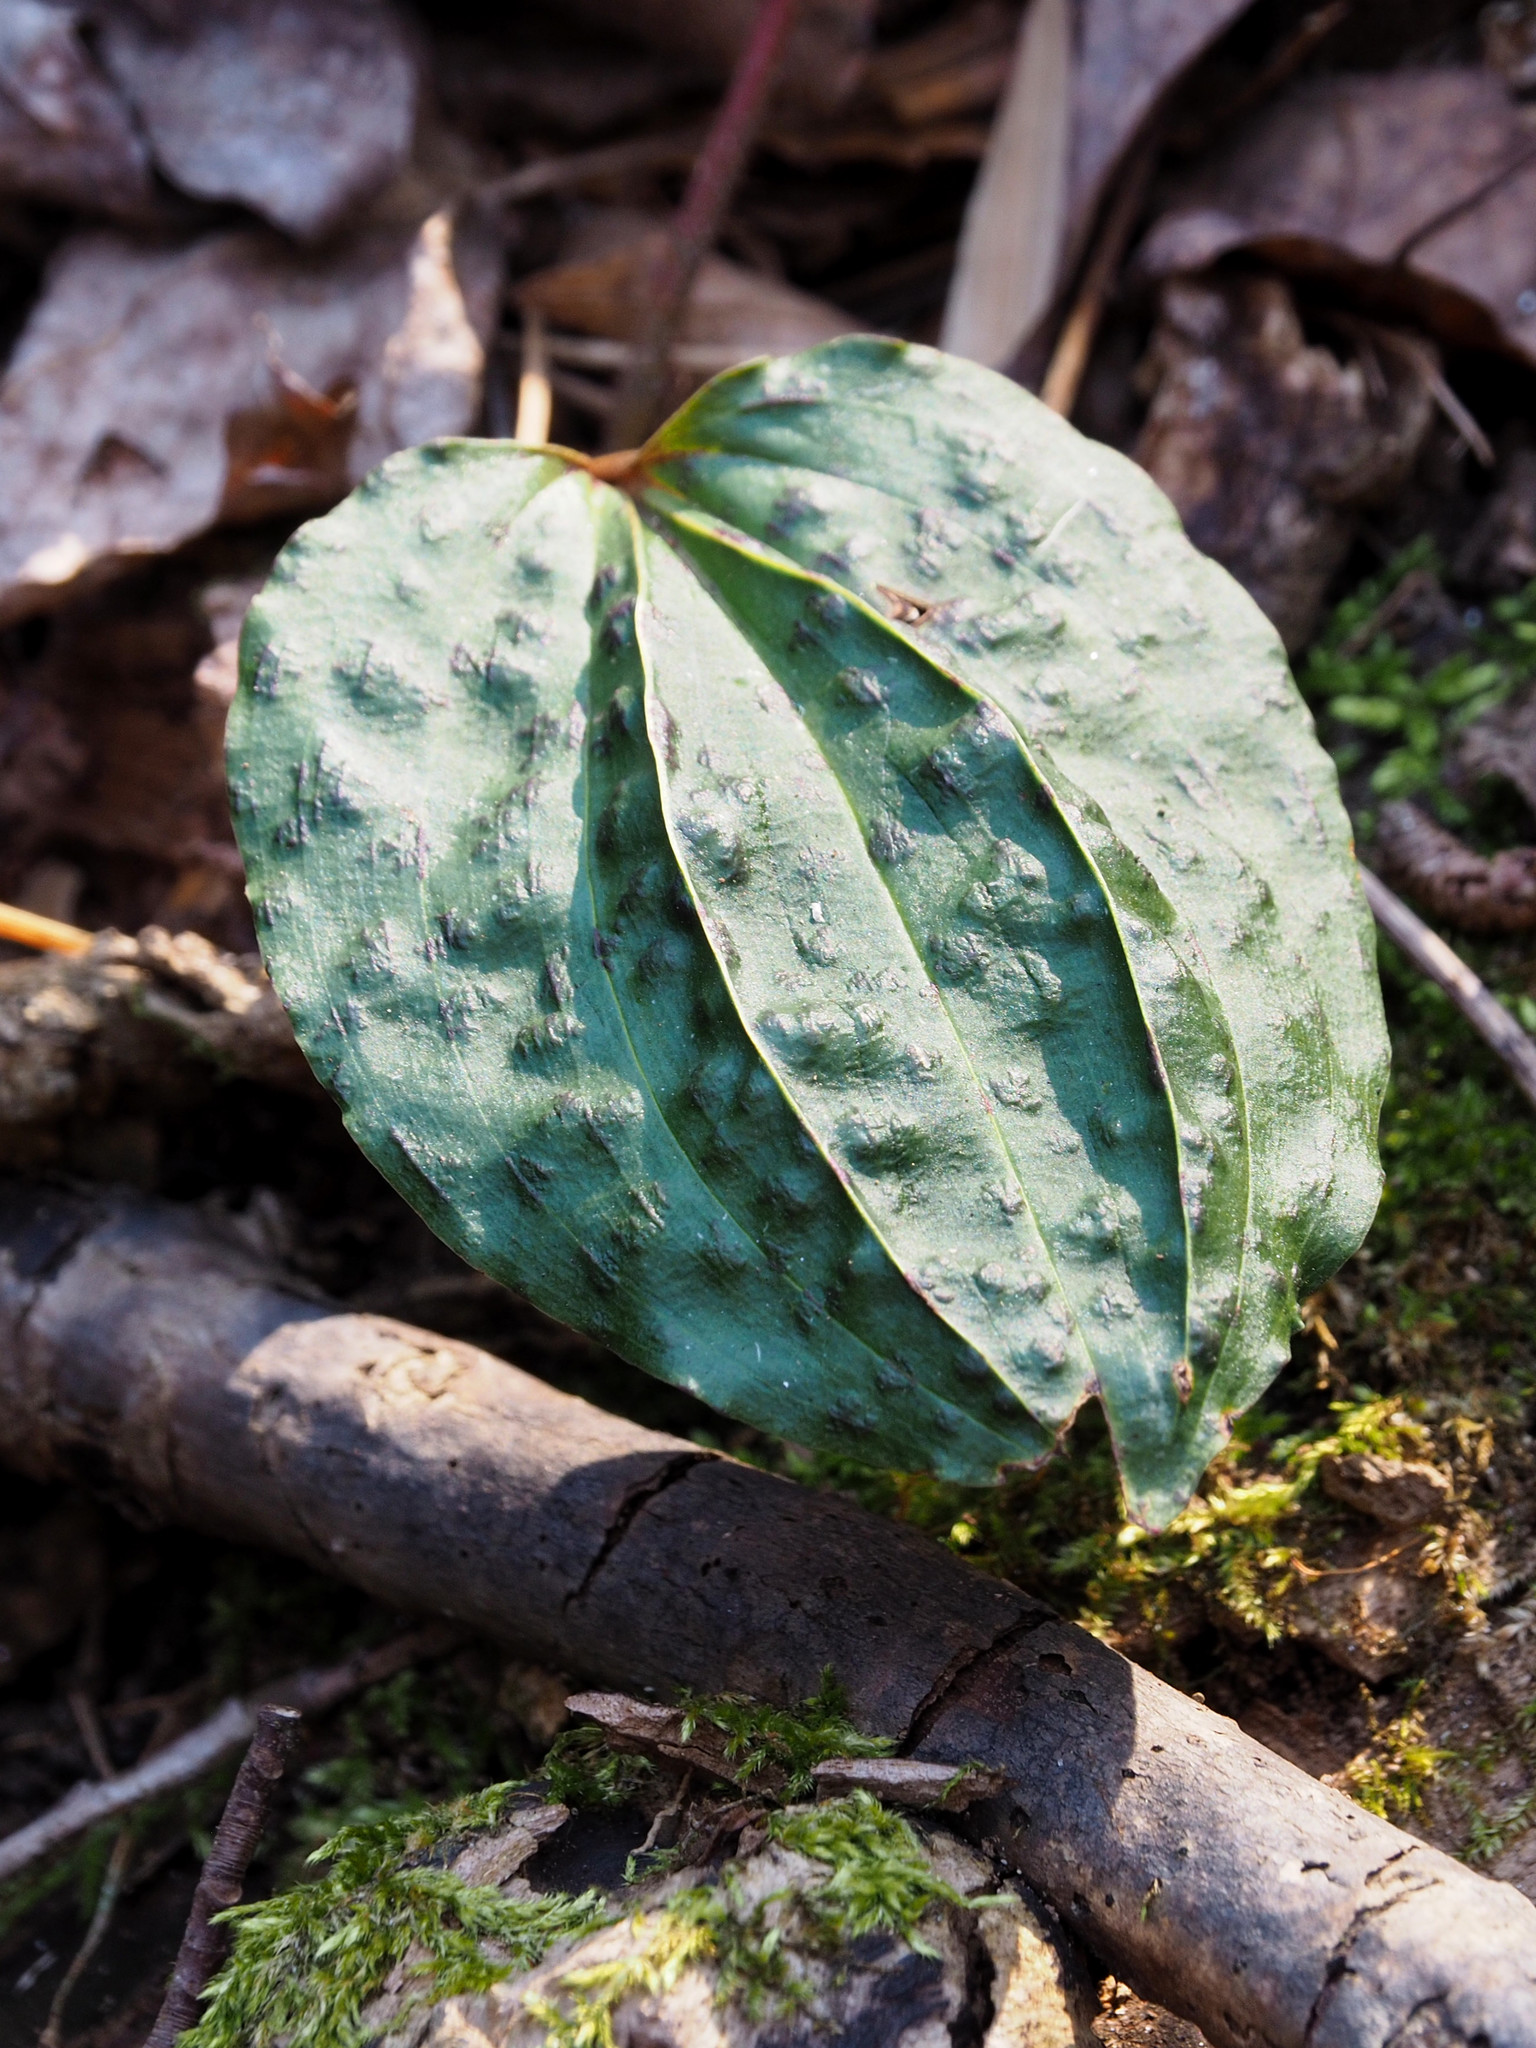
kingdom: Plantae
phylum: Tracheophyta
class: Liliopsida
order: Asparagales
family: Orchidaceae
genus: Tipularia
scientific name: Tipularia discolor
